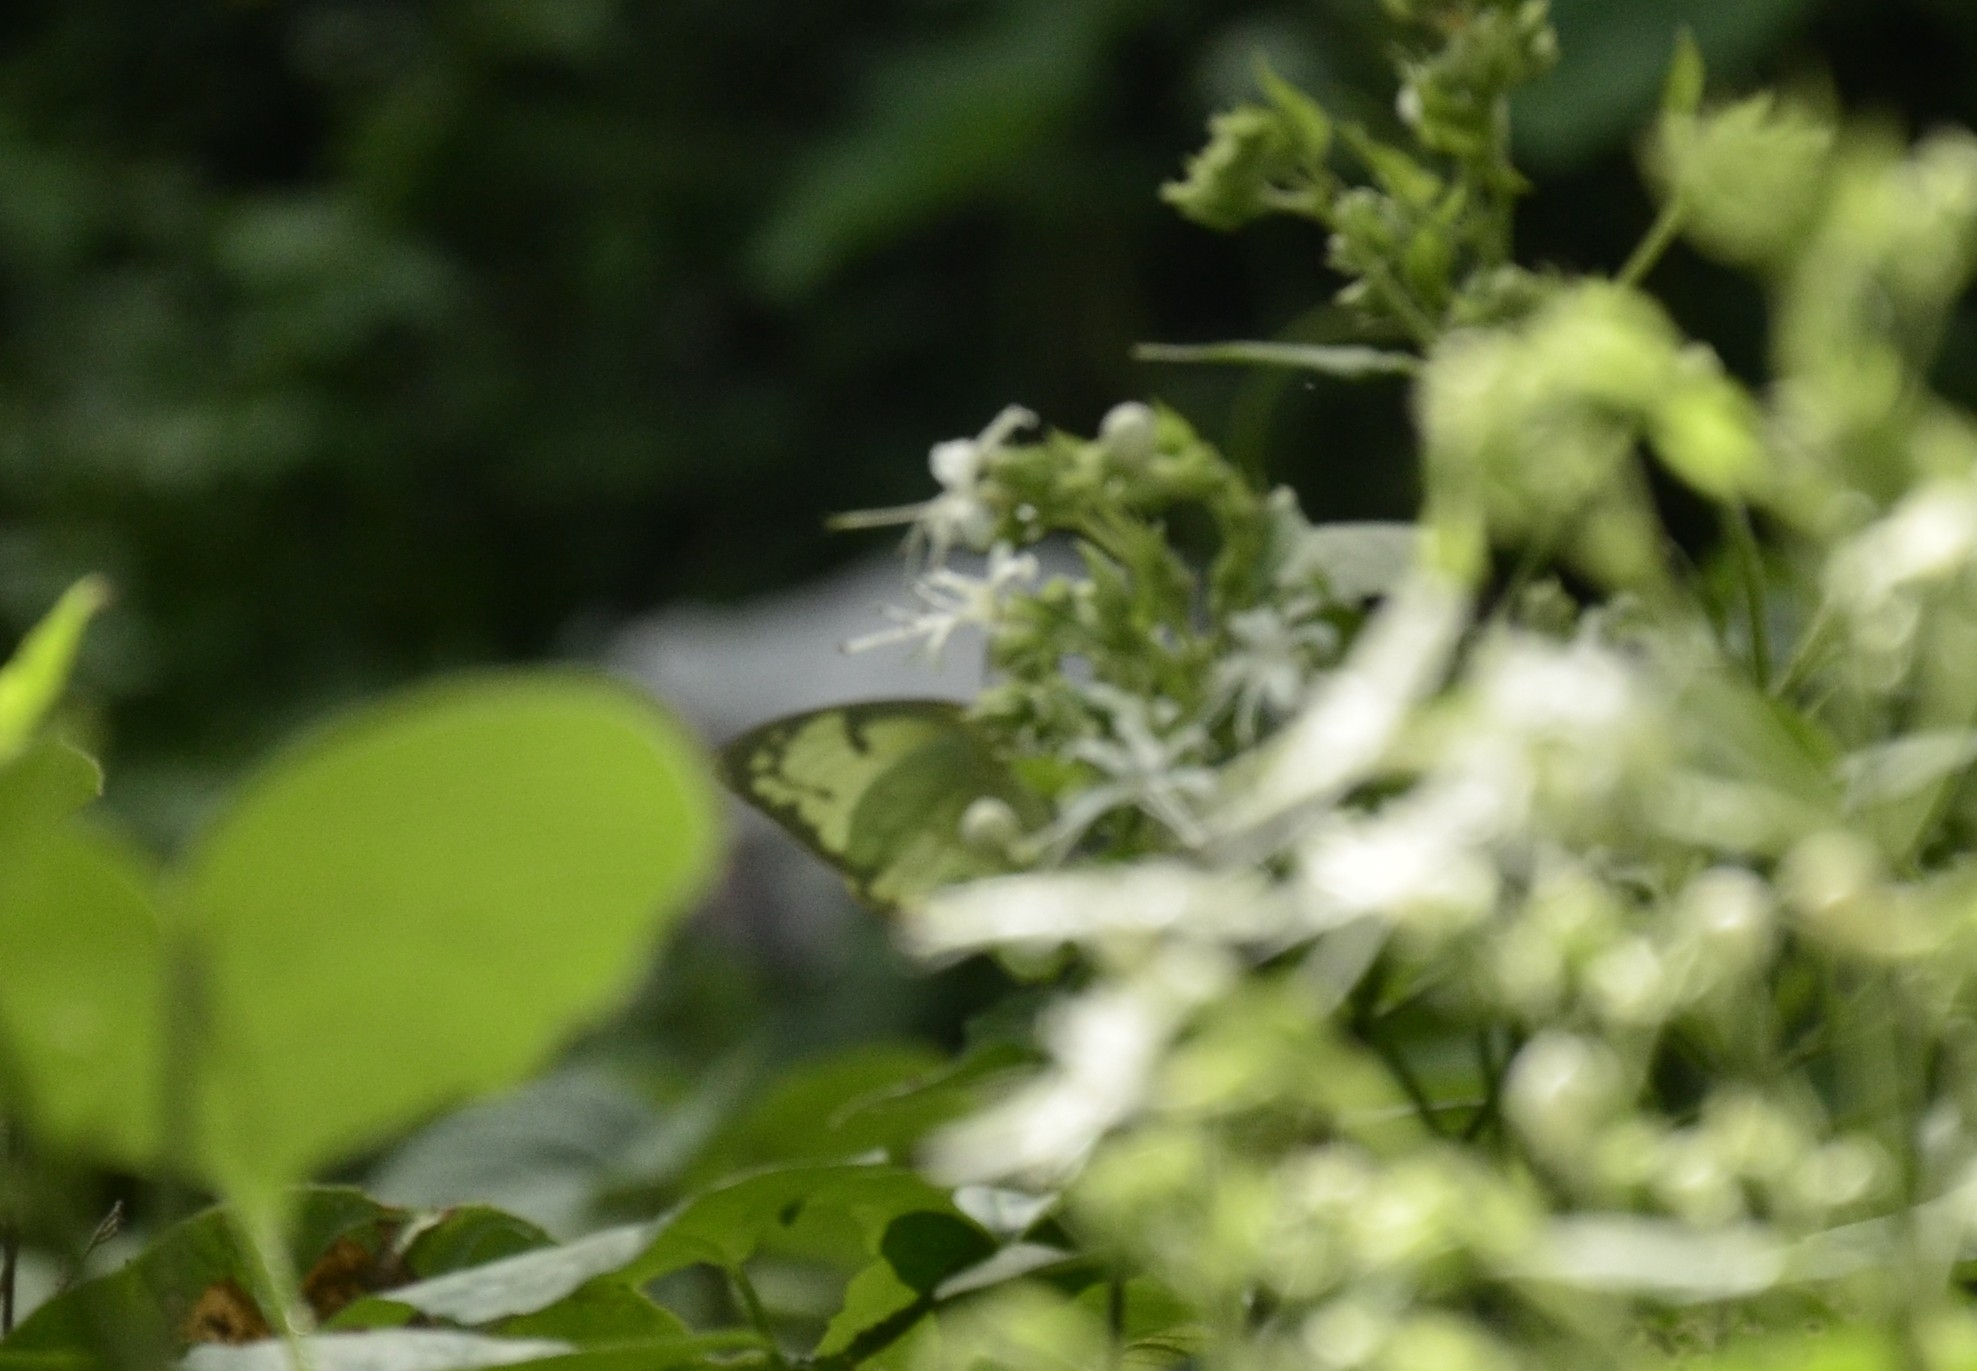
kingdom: Animalia
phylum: Arthropoda
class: Insecta
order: Lepidoptera
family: Pieridae
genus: Catopsilia
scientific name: Catopsilia pomona
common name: Common emigrant
